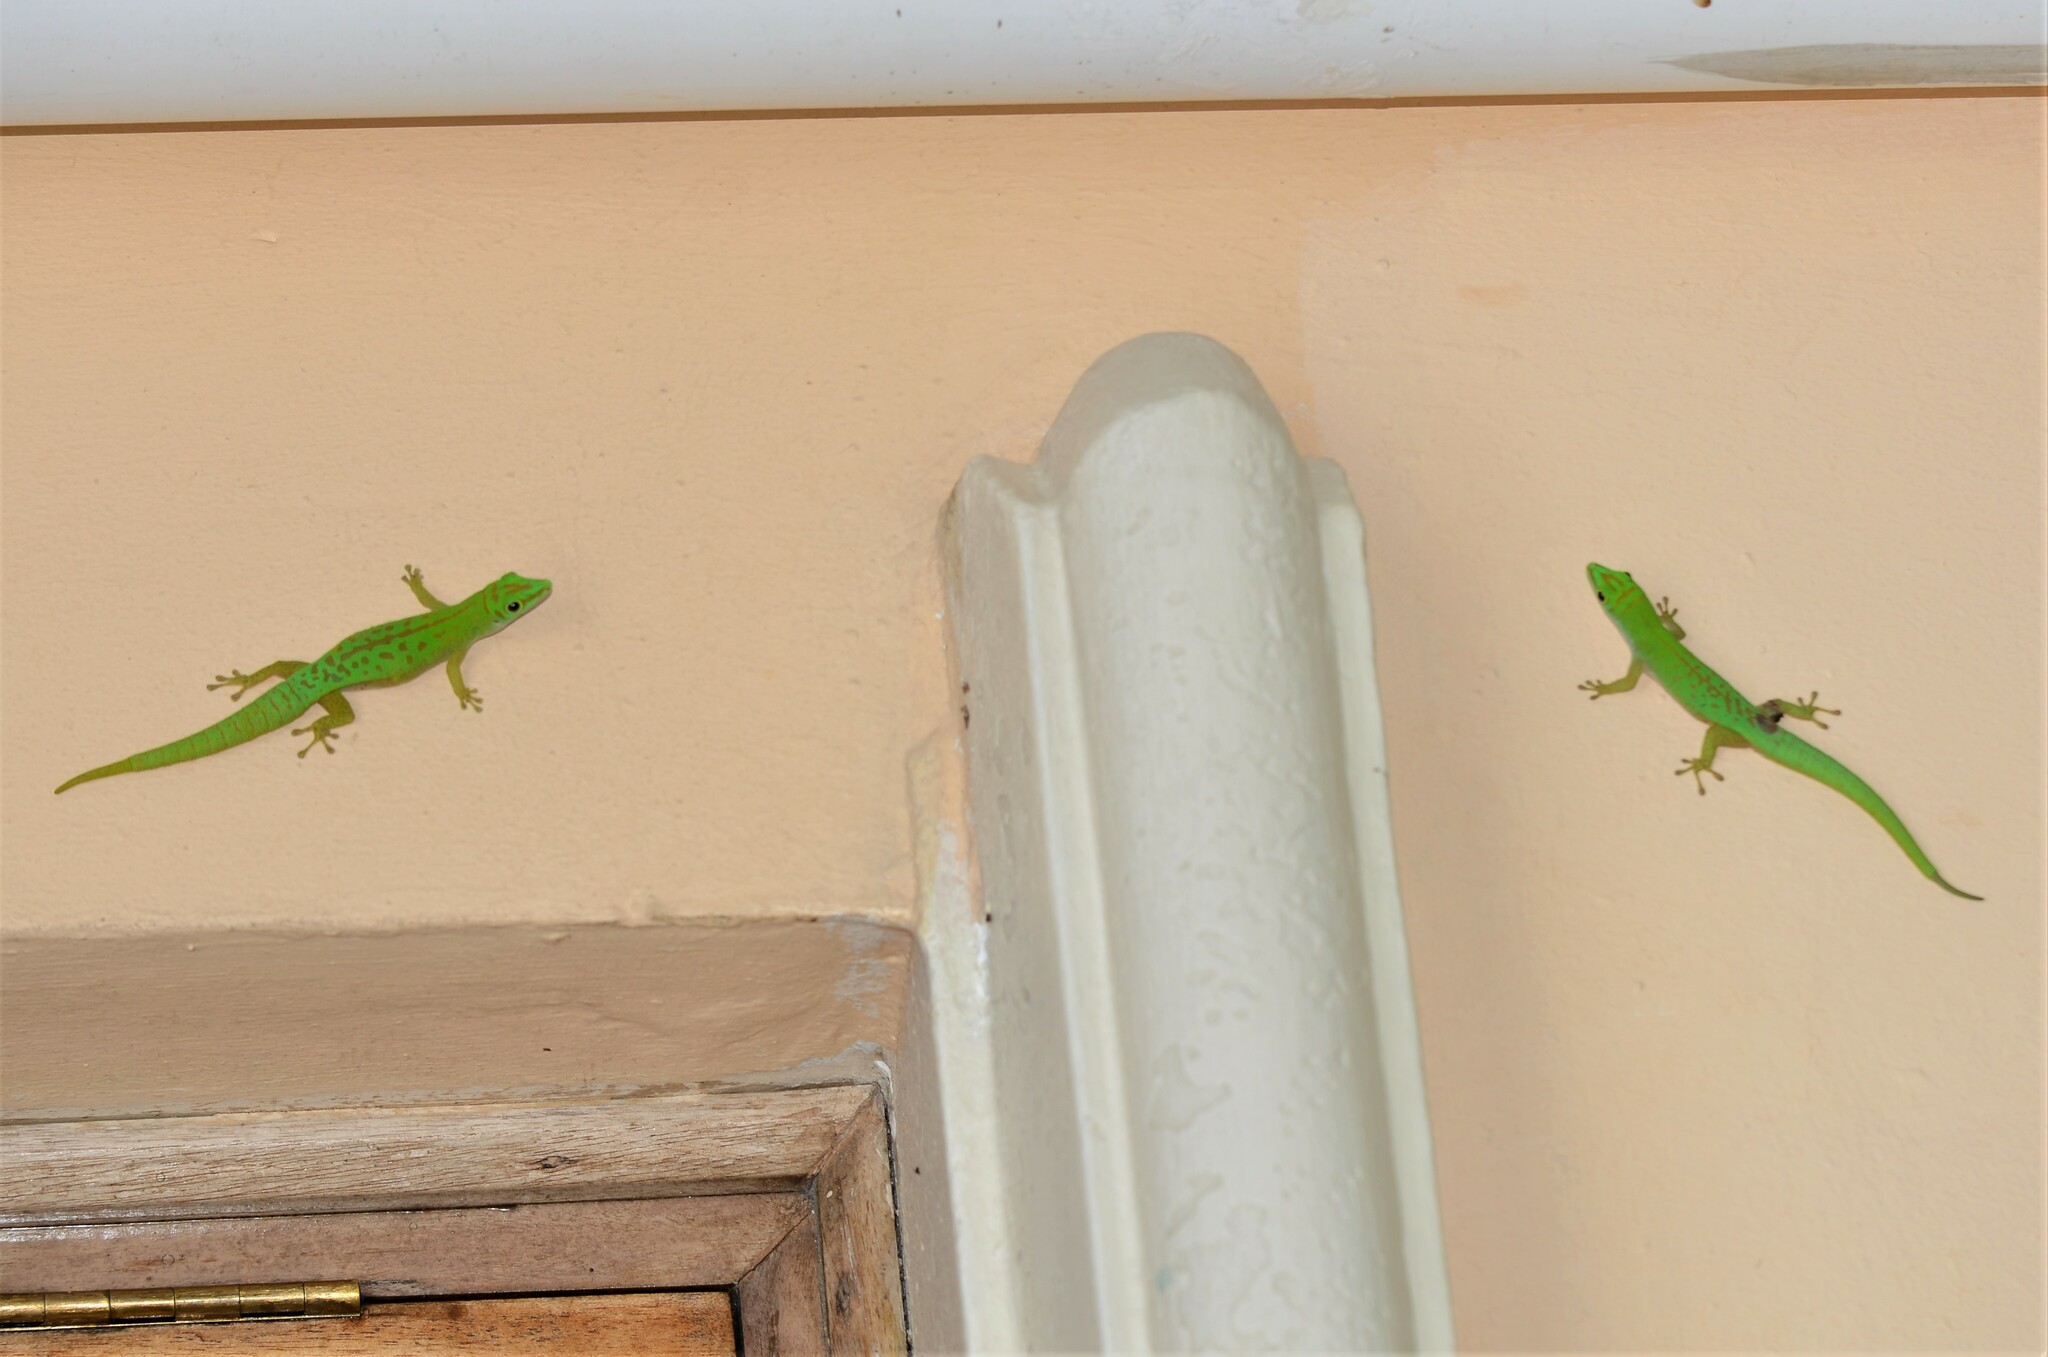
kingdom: Animalia
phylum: Chordata
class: Squamata
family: Gekkonidae
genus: Phelsuma
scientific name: Phelsuma astriata
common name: Seychelles day gecko
